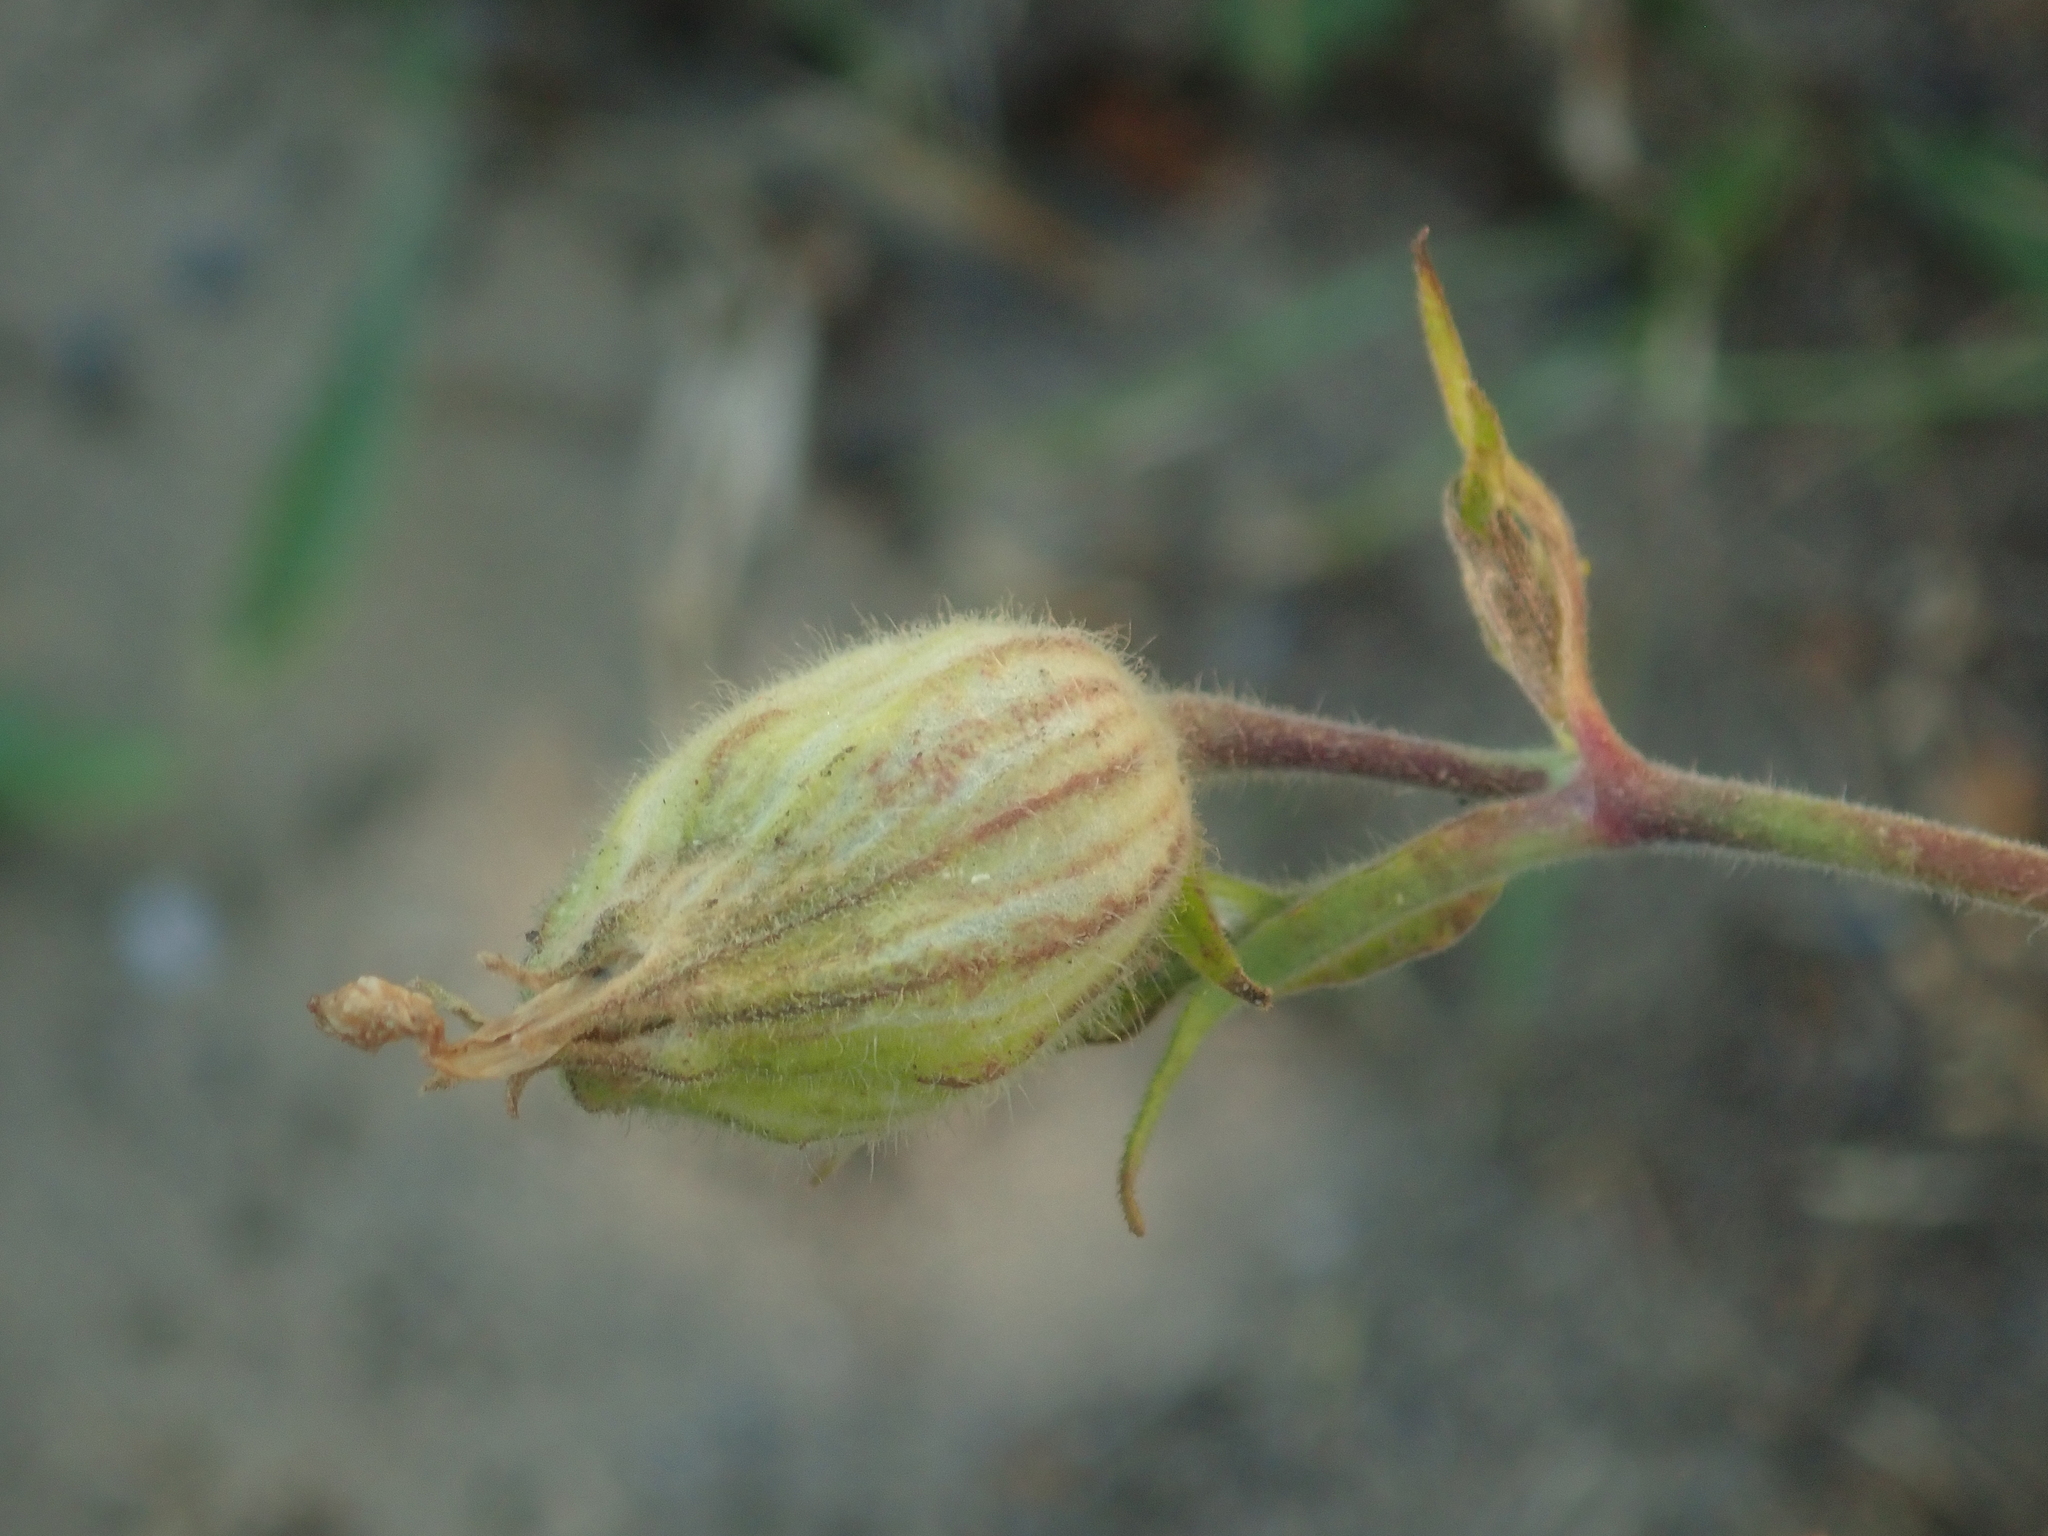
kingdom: Plantae
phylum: Tracheophyta
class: Magnoliopsida
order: Caryophyllales
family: Caryophyllaceae
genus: Silene
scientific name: Silene latifolia
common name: White campion
